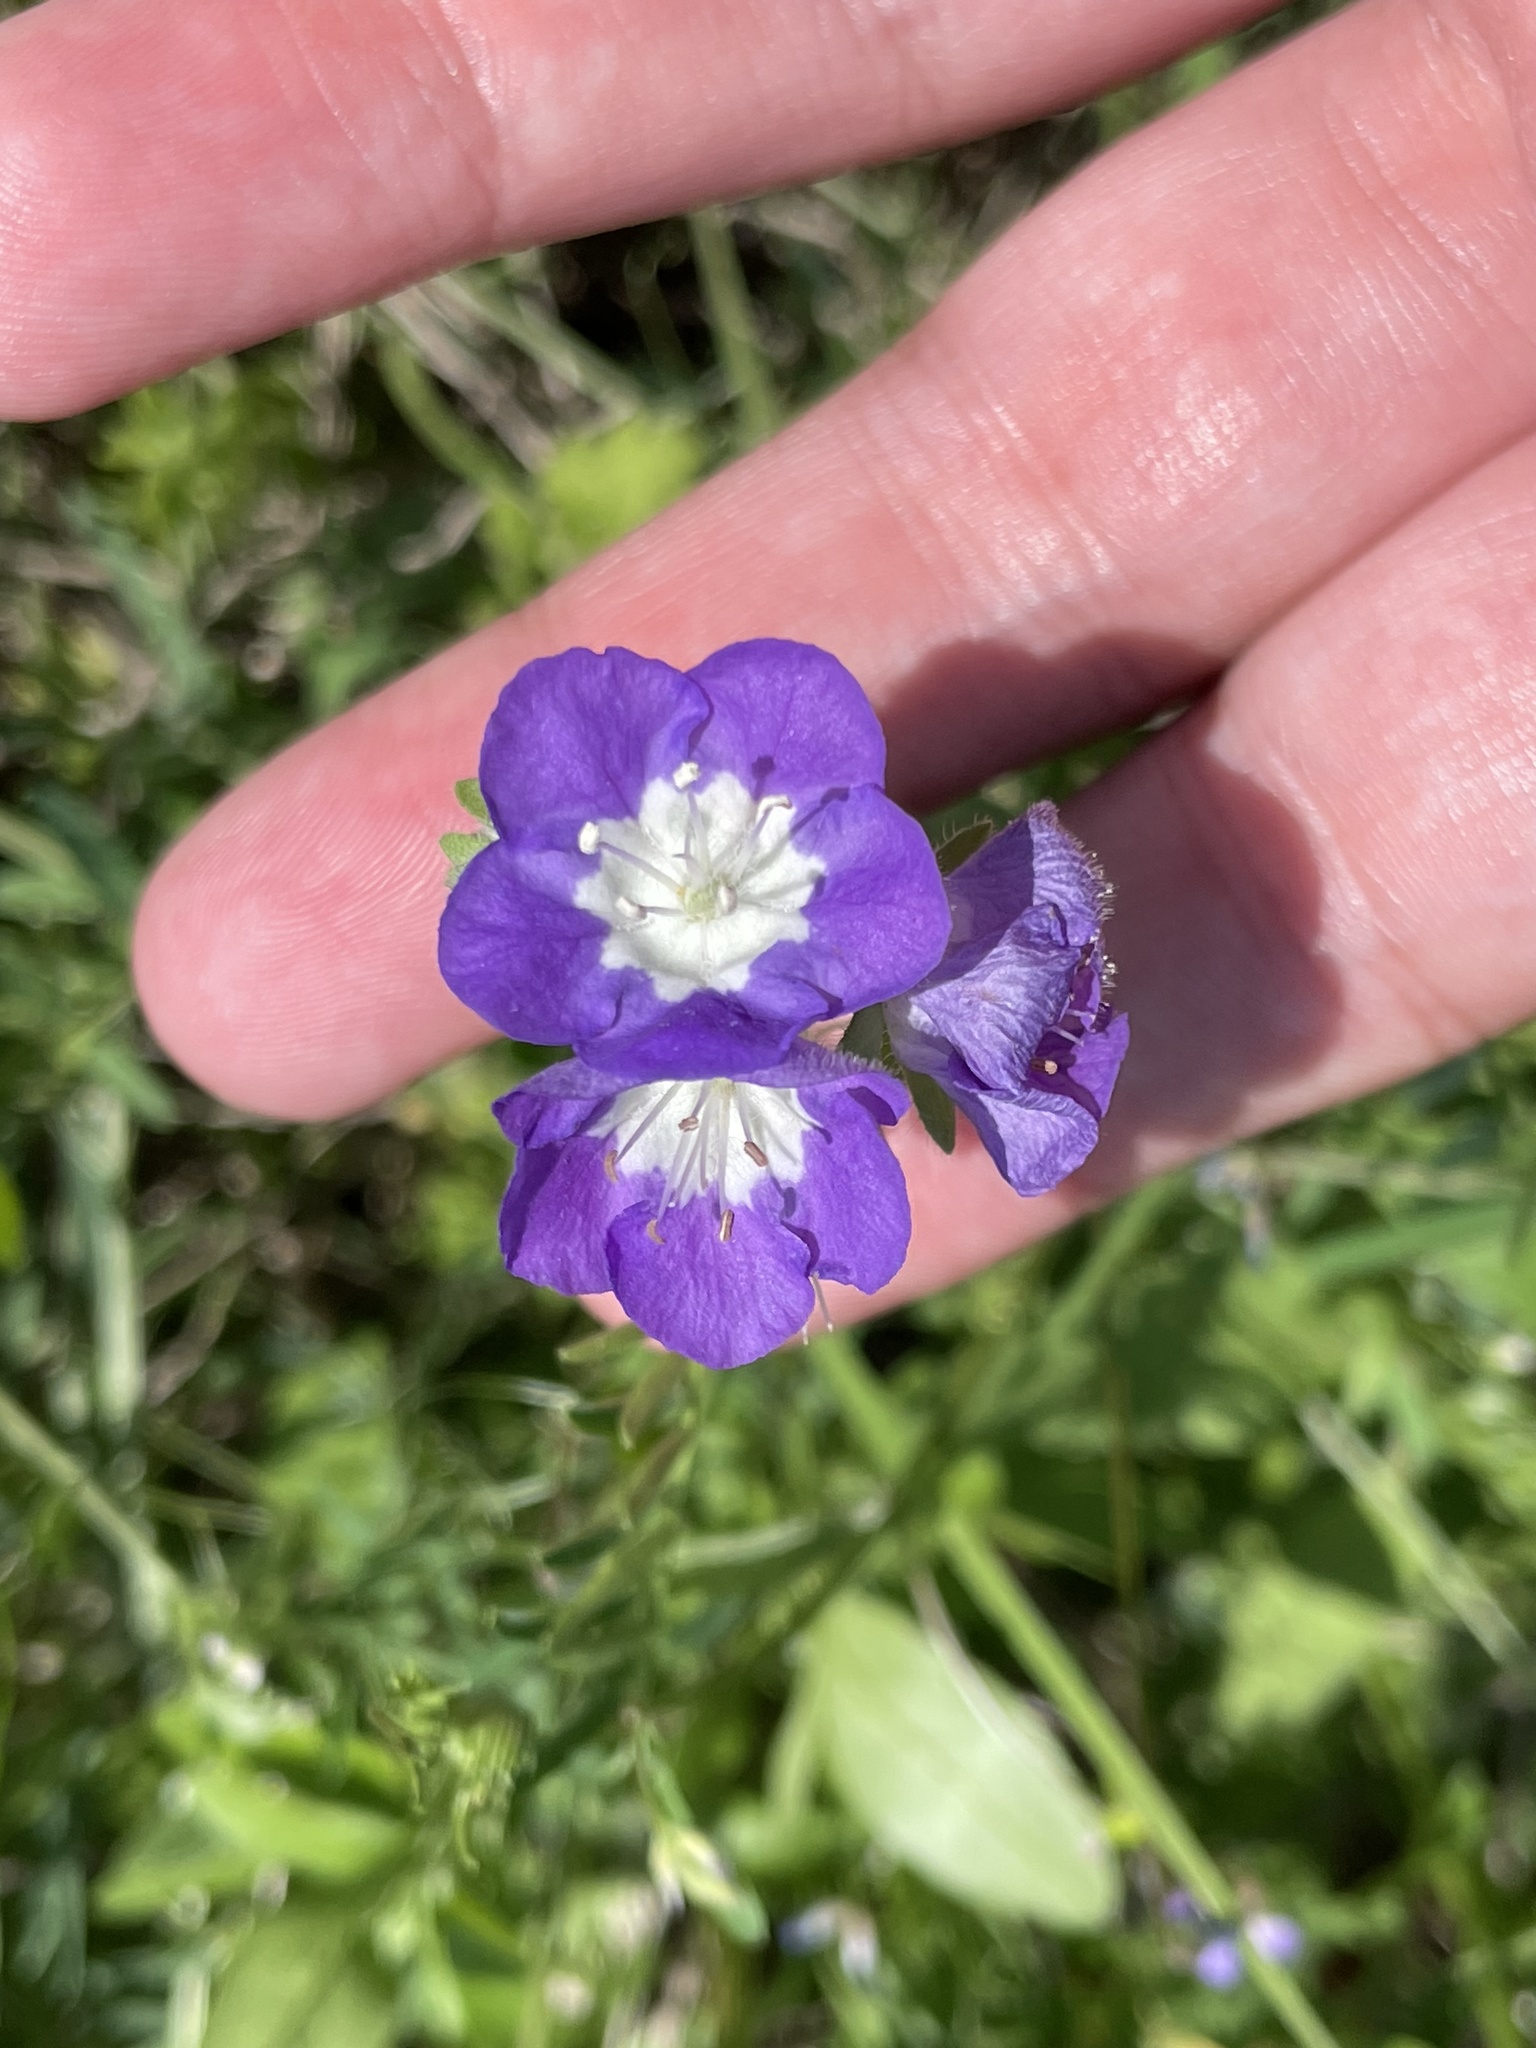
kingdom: Plantae
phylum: Tracheophyta
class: Magnoliopsida
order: Boraginales
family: Hydrophyllaceae
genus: Phacelia
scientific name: Phacelia austrotexana
